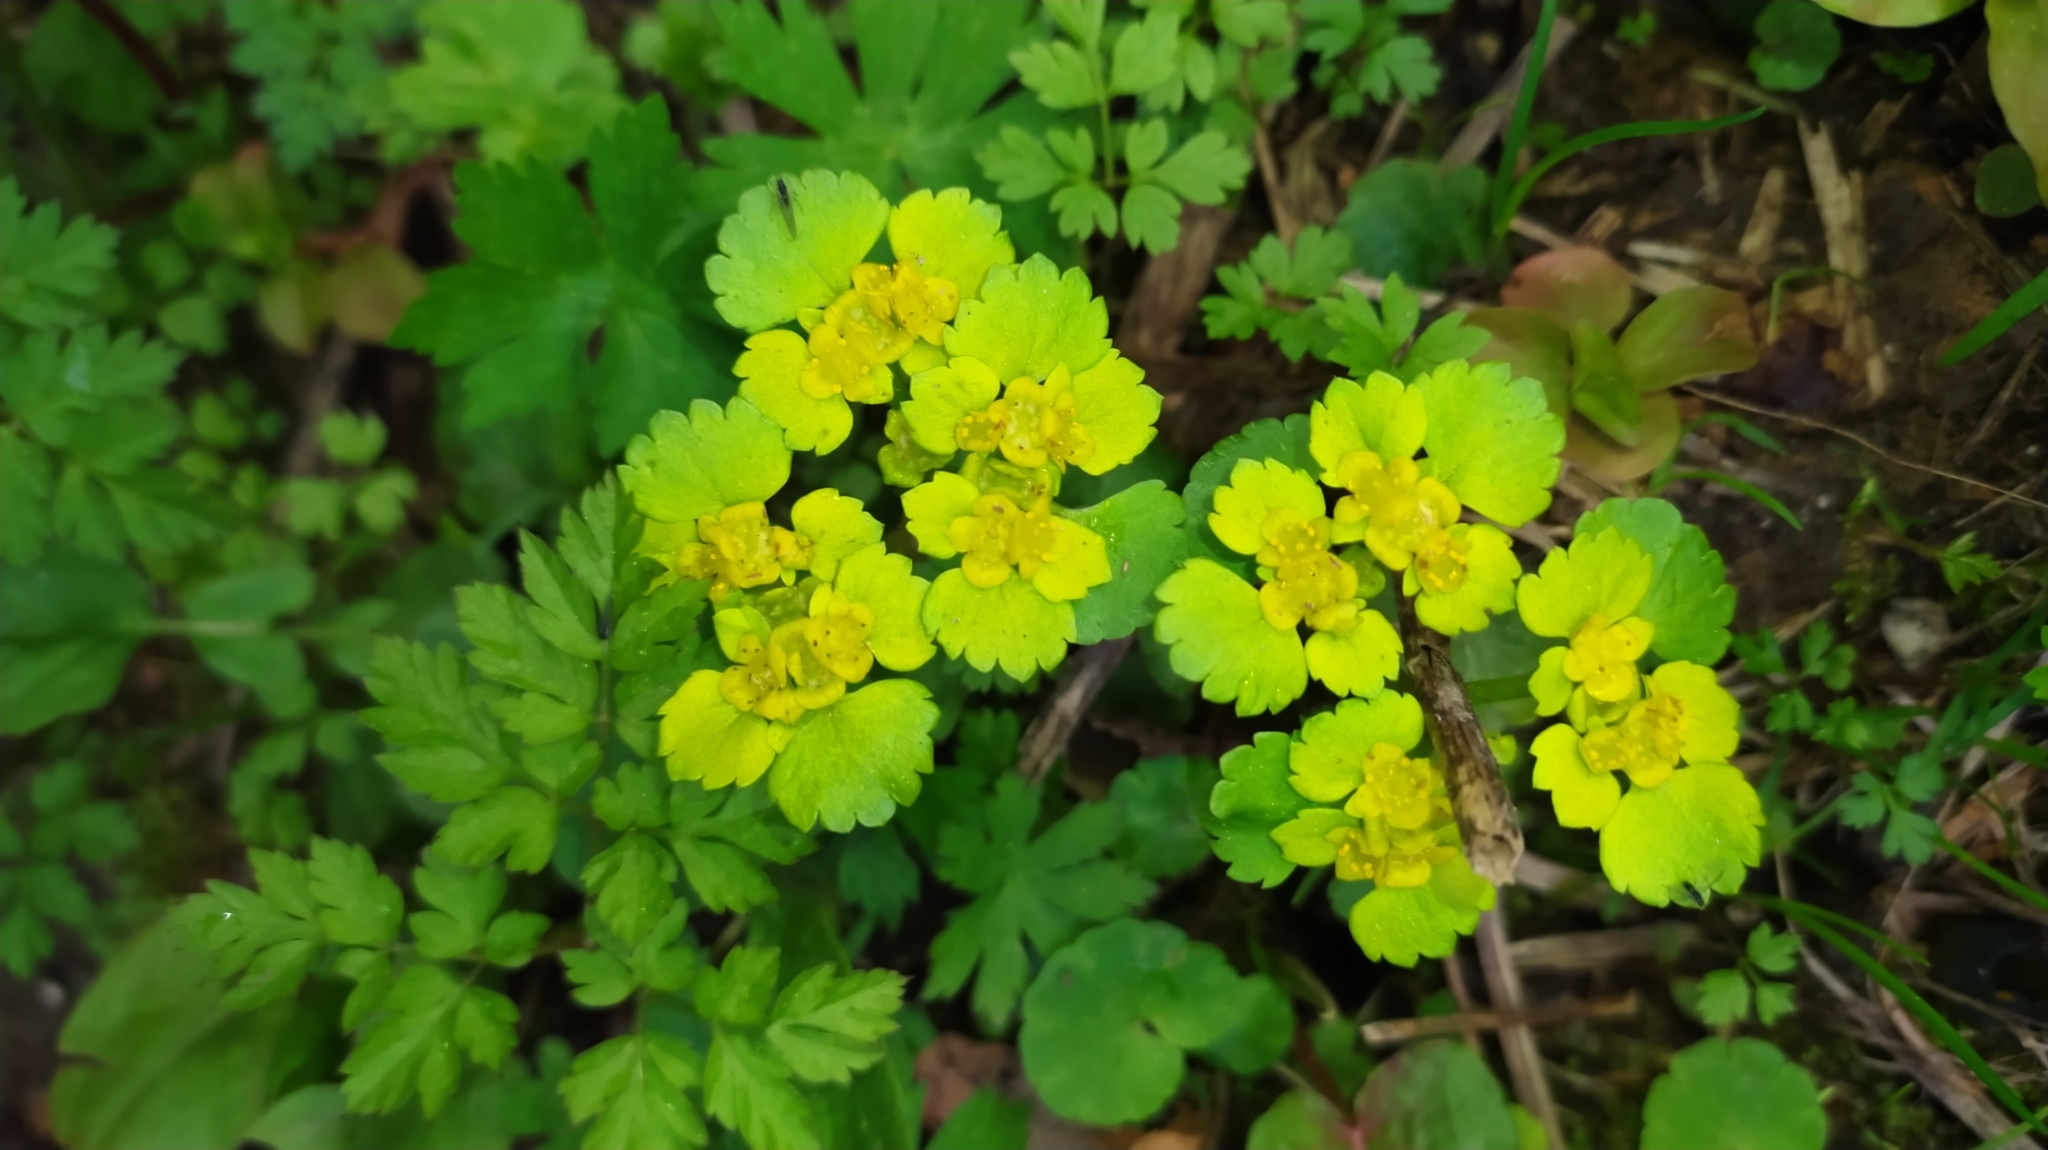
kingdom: Plantae
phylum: Tracheophyta
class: Magnoliopsida
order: Saxifragales
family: Saxifragaceae
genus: Chrysosplenium
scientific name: Chrysosplenium alternifolium
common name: Alternate-leaved golden-saxifrage
